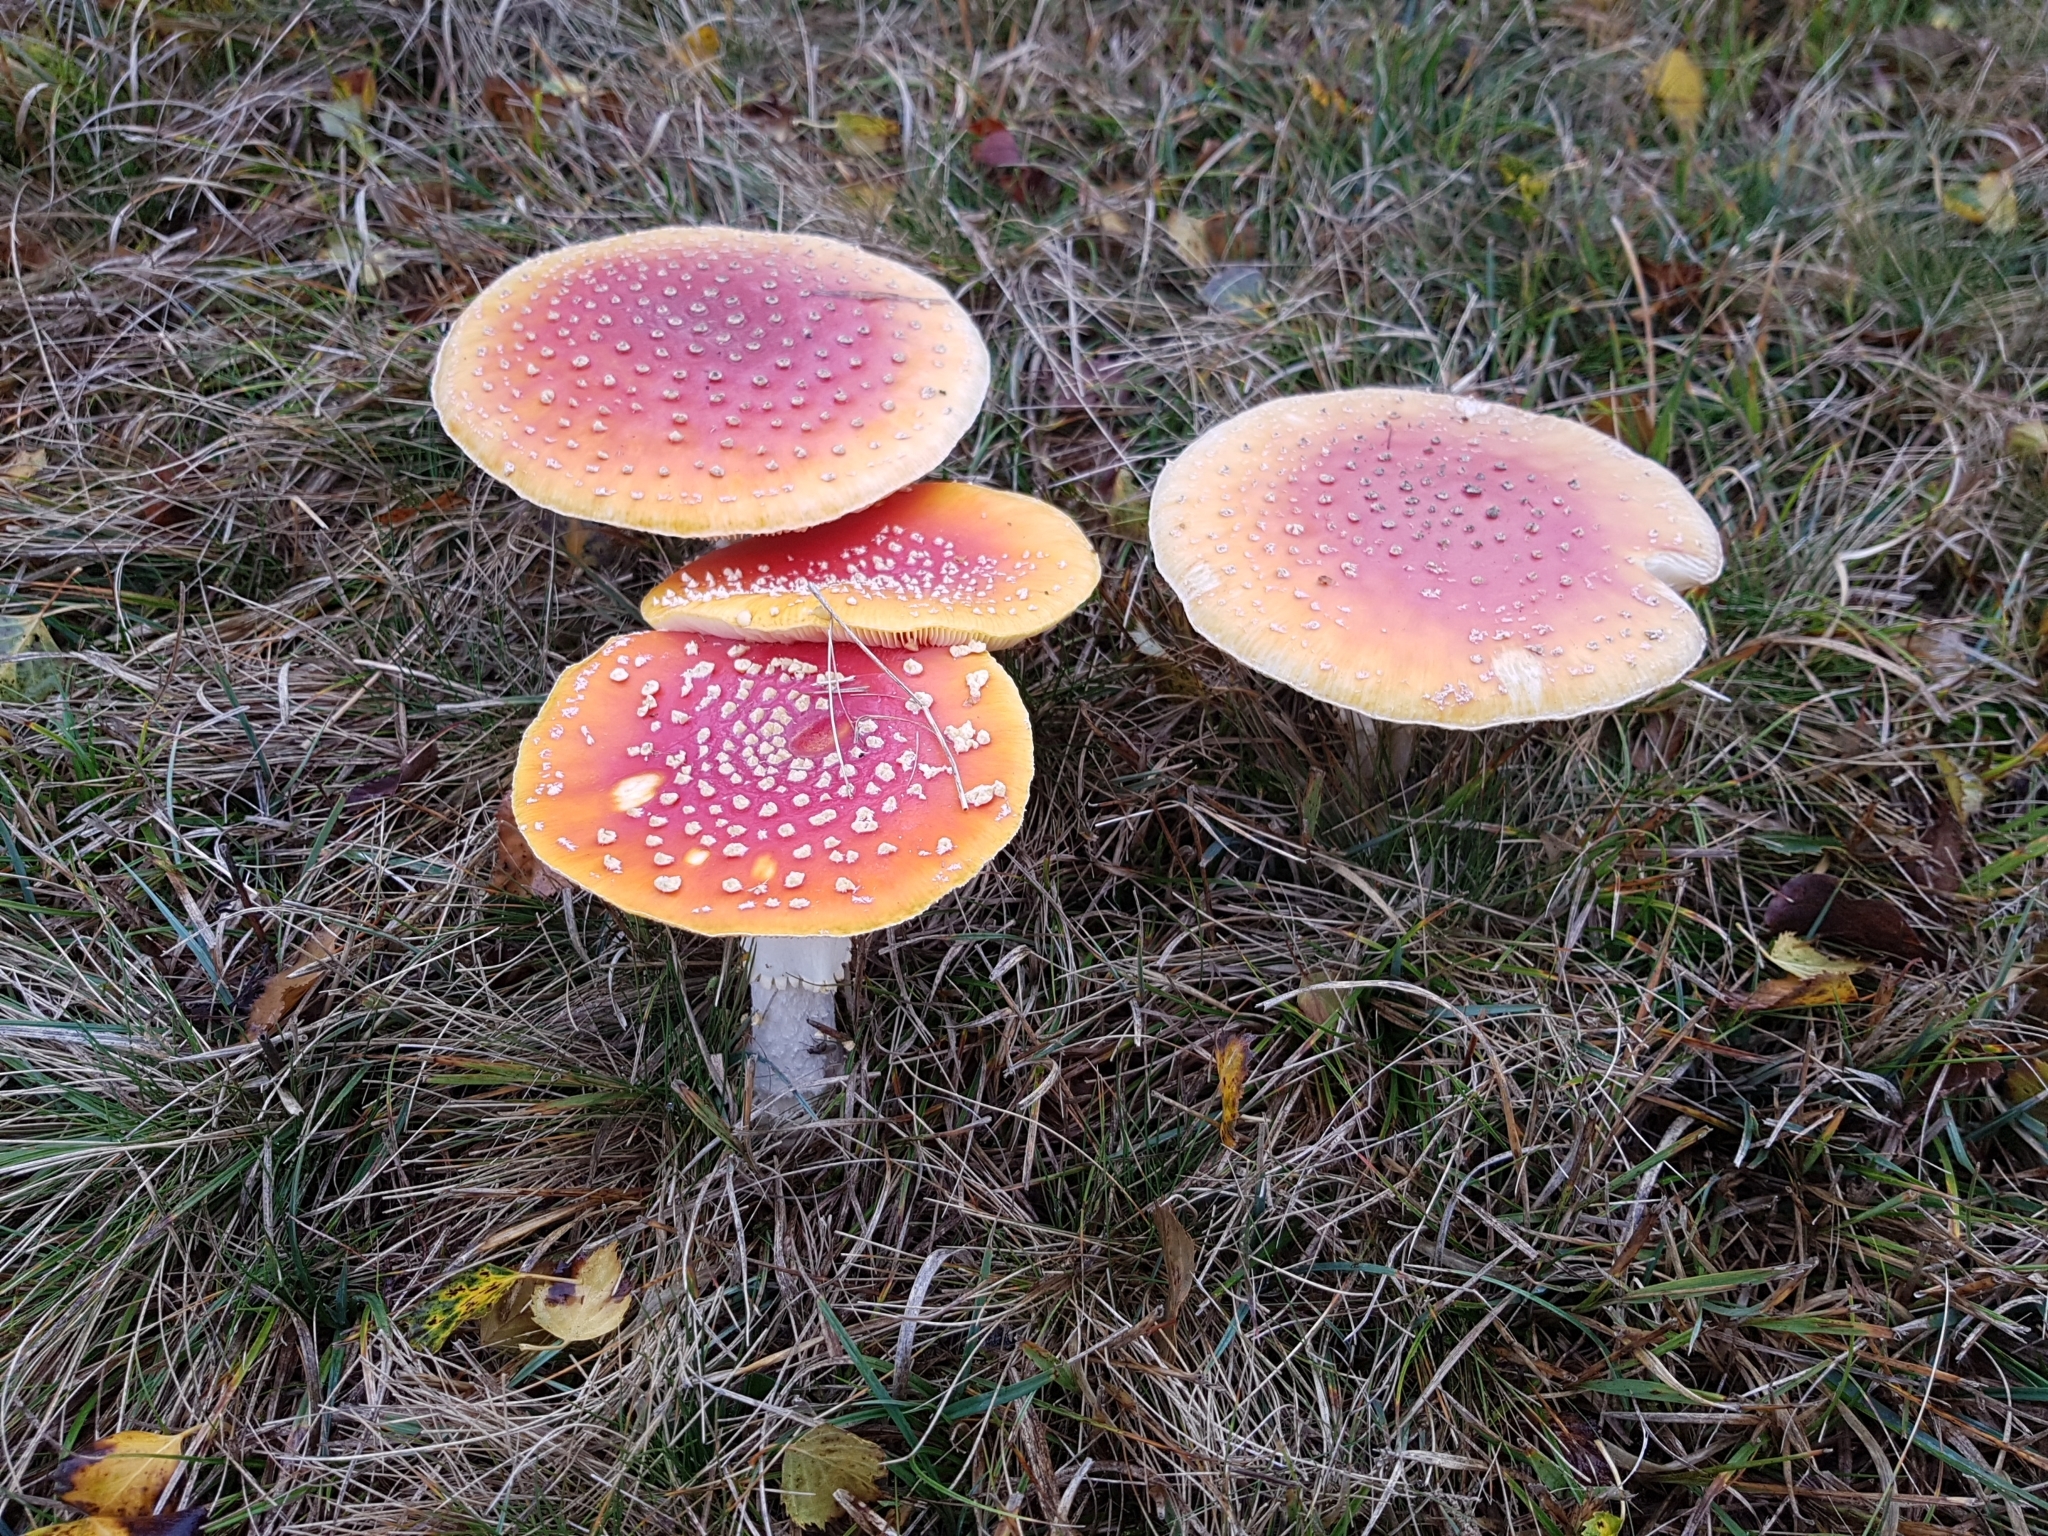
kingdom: Fungi
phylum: Basidiomycota
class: Agaricomycetes
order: Agaricales
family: Amanitaceae
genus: Amanita
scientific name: Amanita muscaria
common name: Fly agaric
